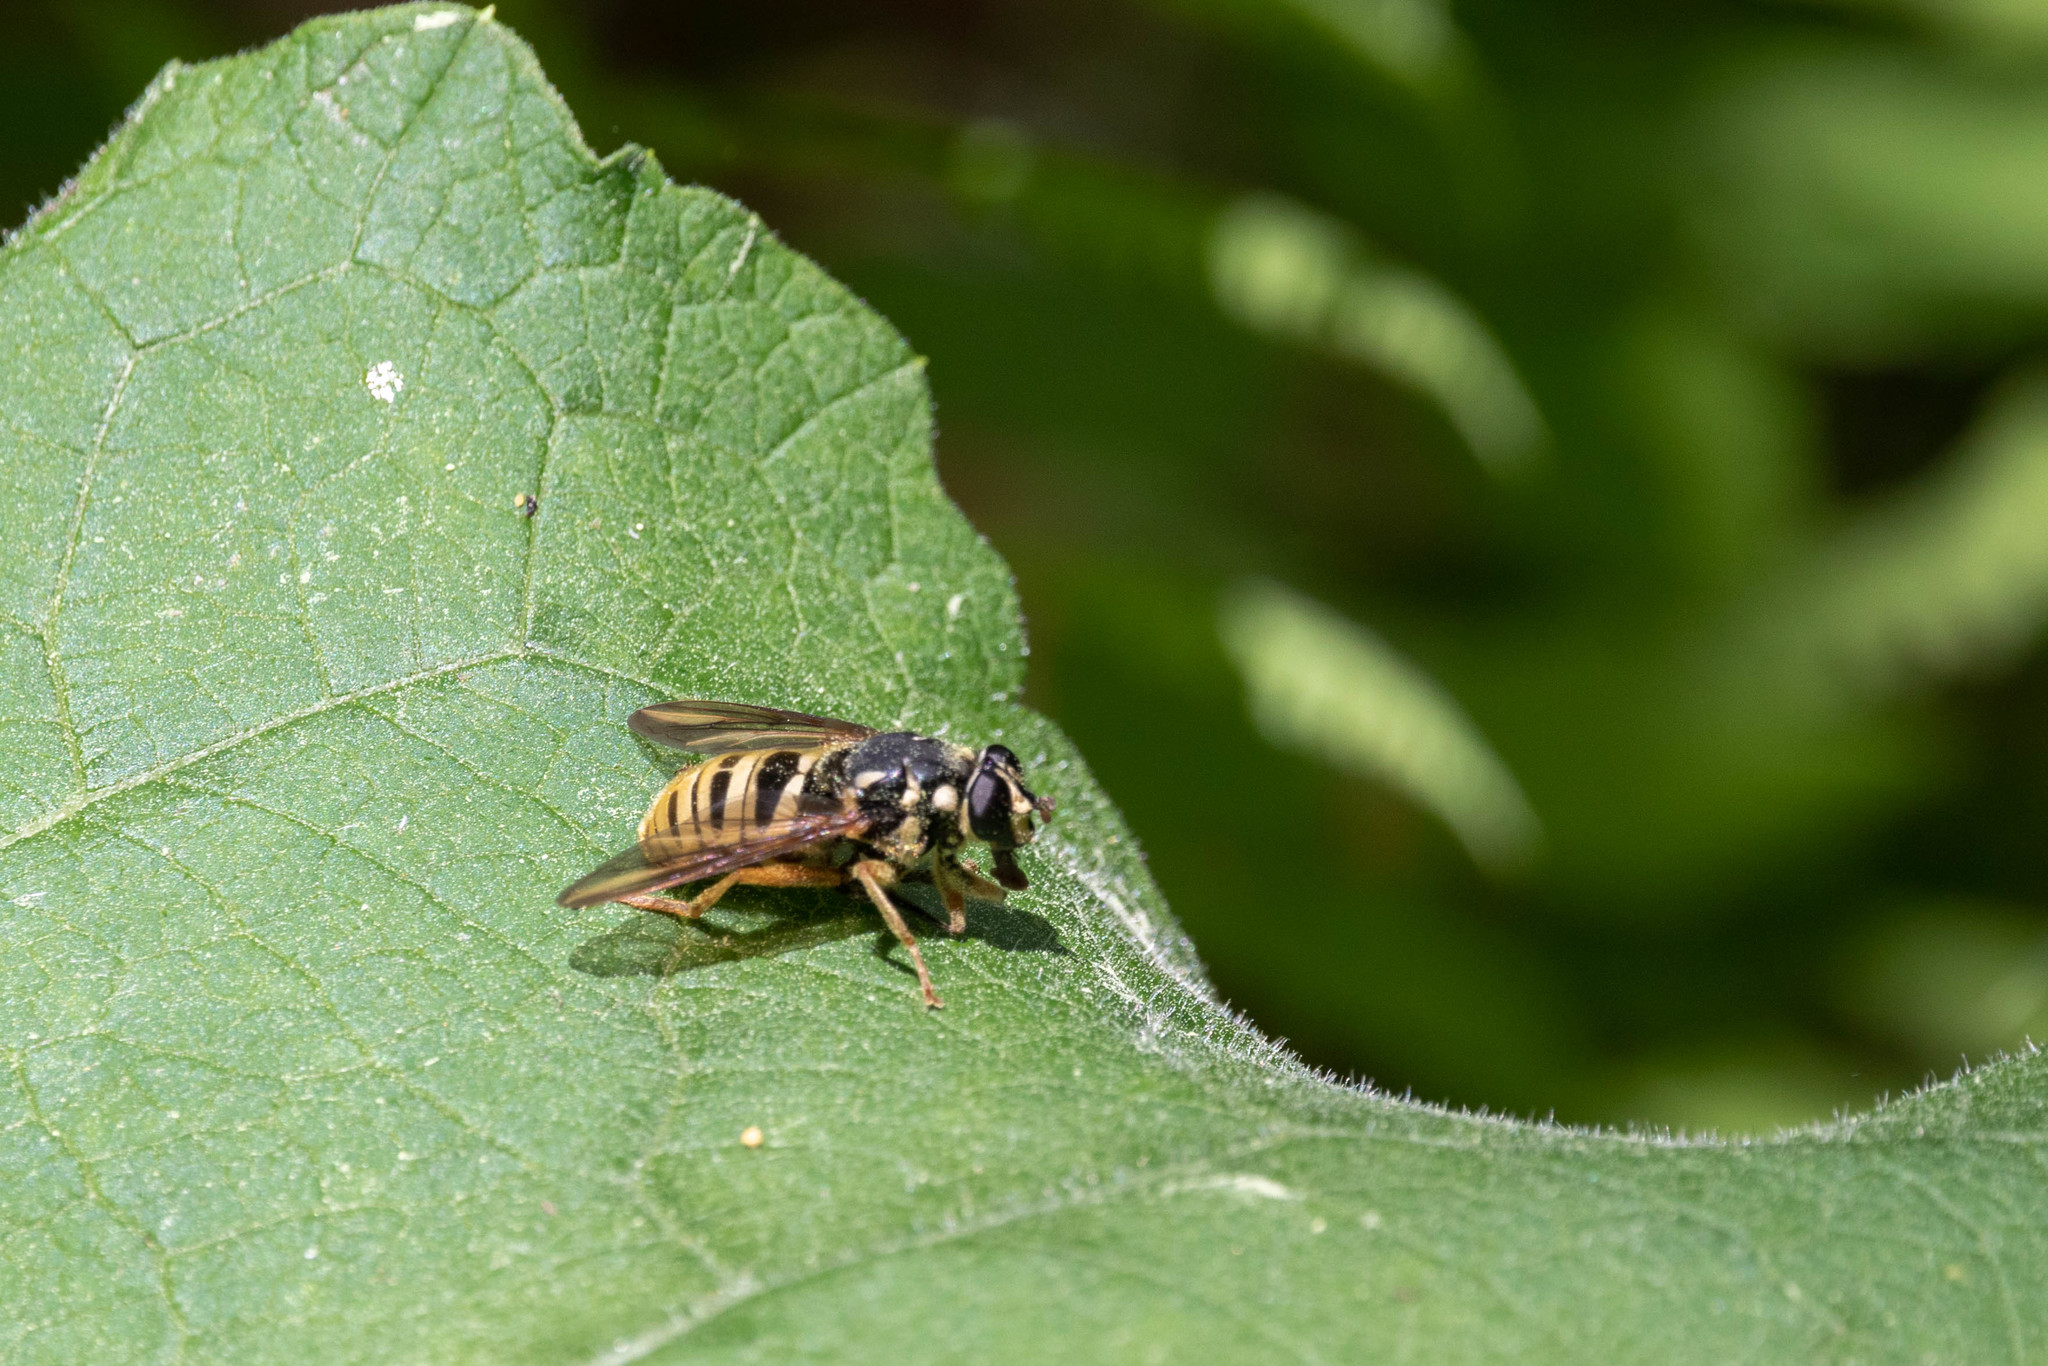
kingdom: Animalia
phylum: Arthropoda
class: Insecta
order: Diptera
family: Syrphidae
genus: Temnostoma
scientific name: Temnostoma excentricum
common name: Black-spotted falsehorn
